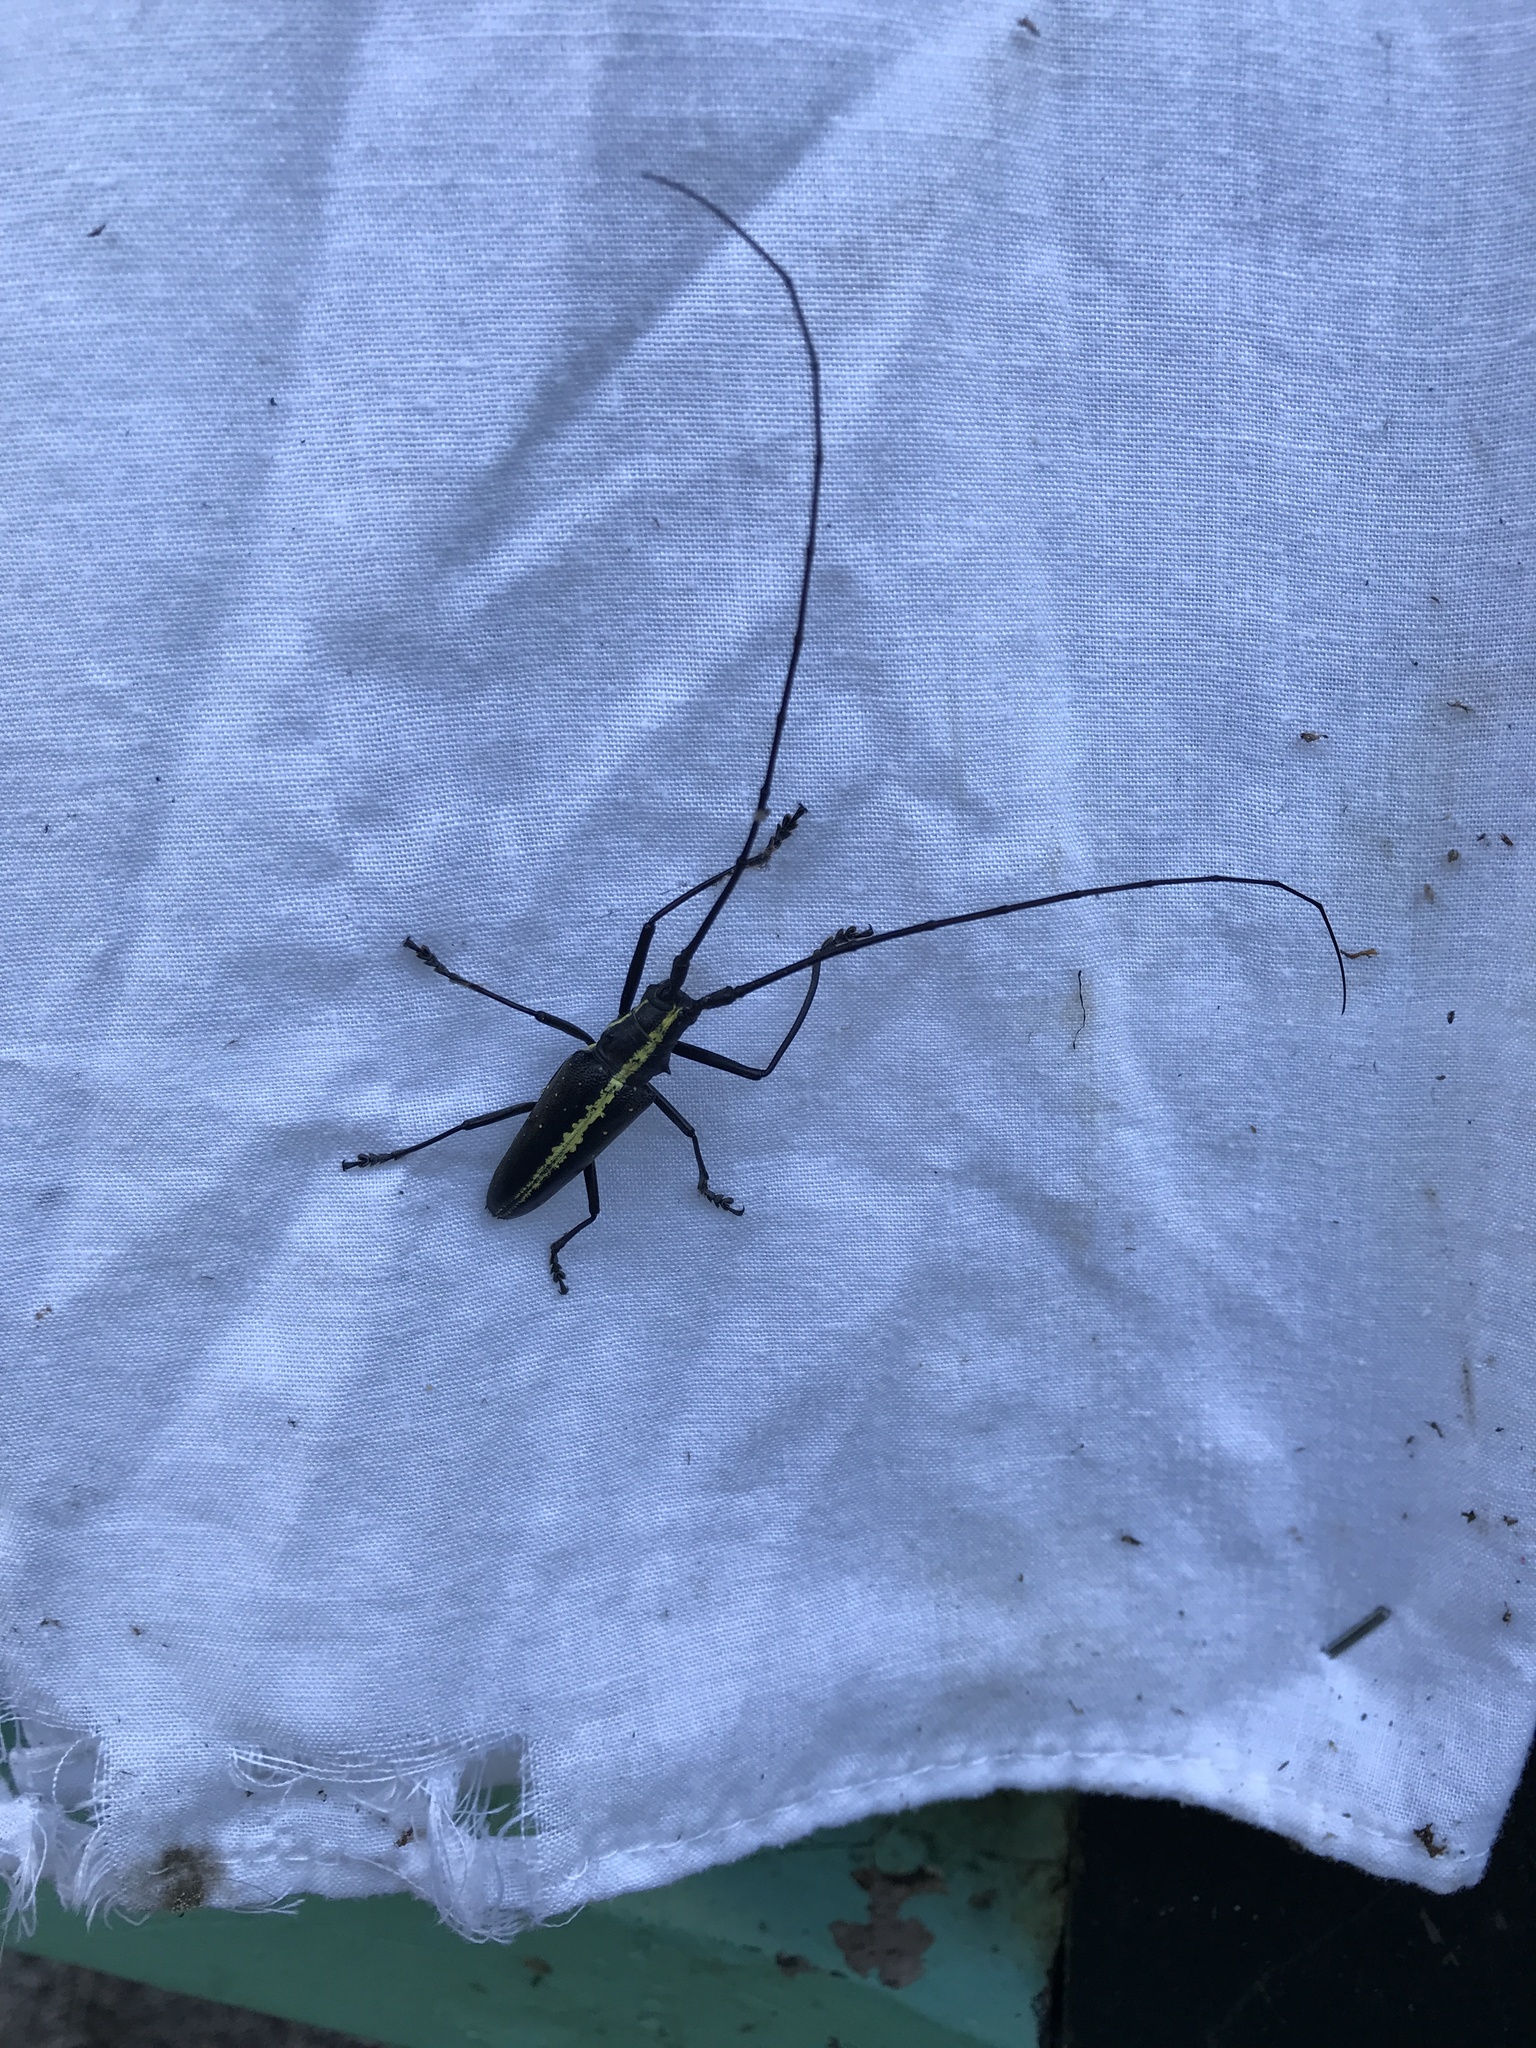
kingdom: Animalia
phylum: Arthropoda
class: Insecta
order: Coleoptera
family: Cerambycidae
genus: Taeniotes
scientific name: Taeniotes scalatus
